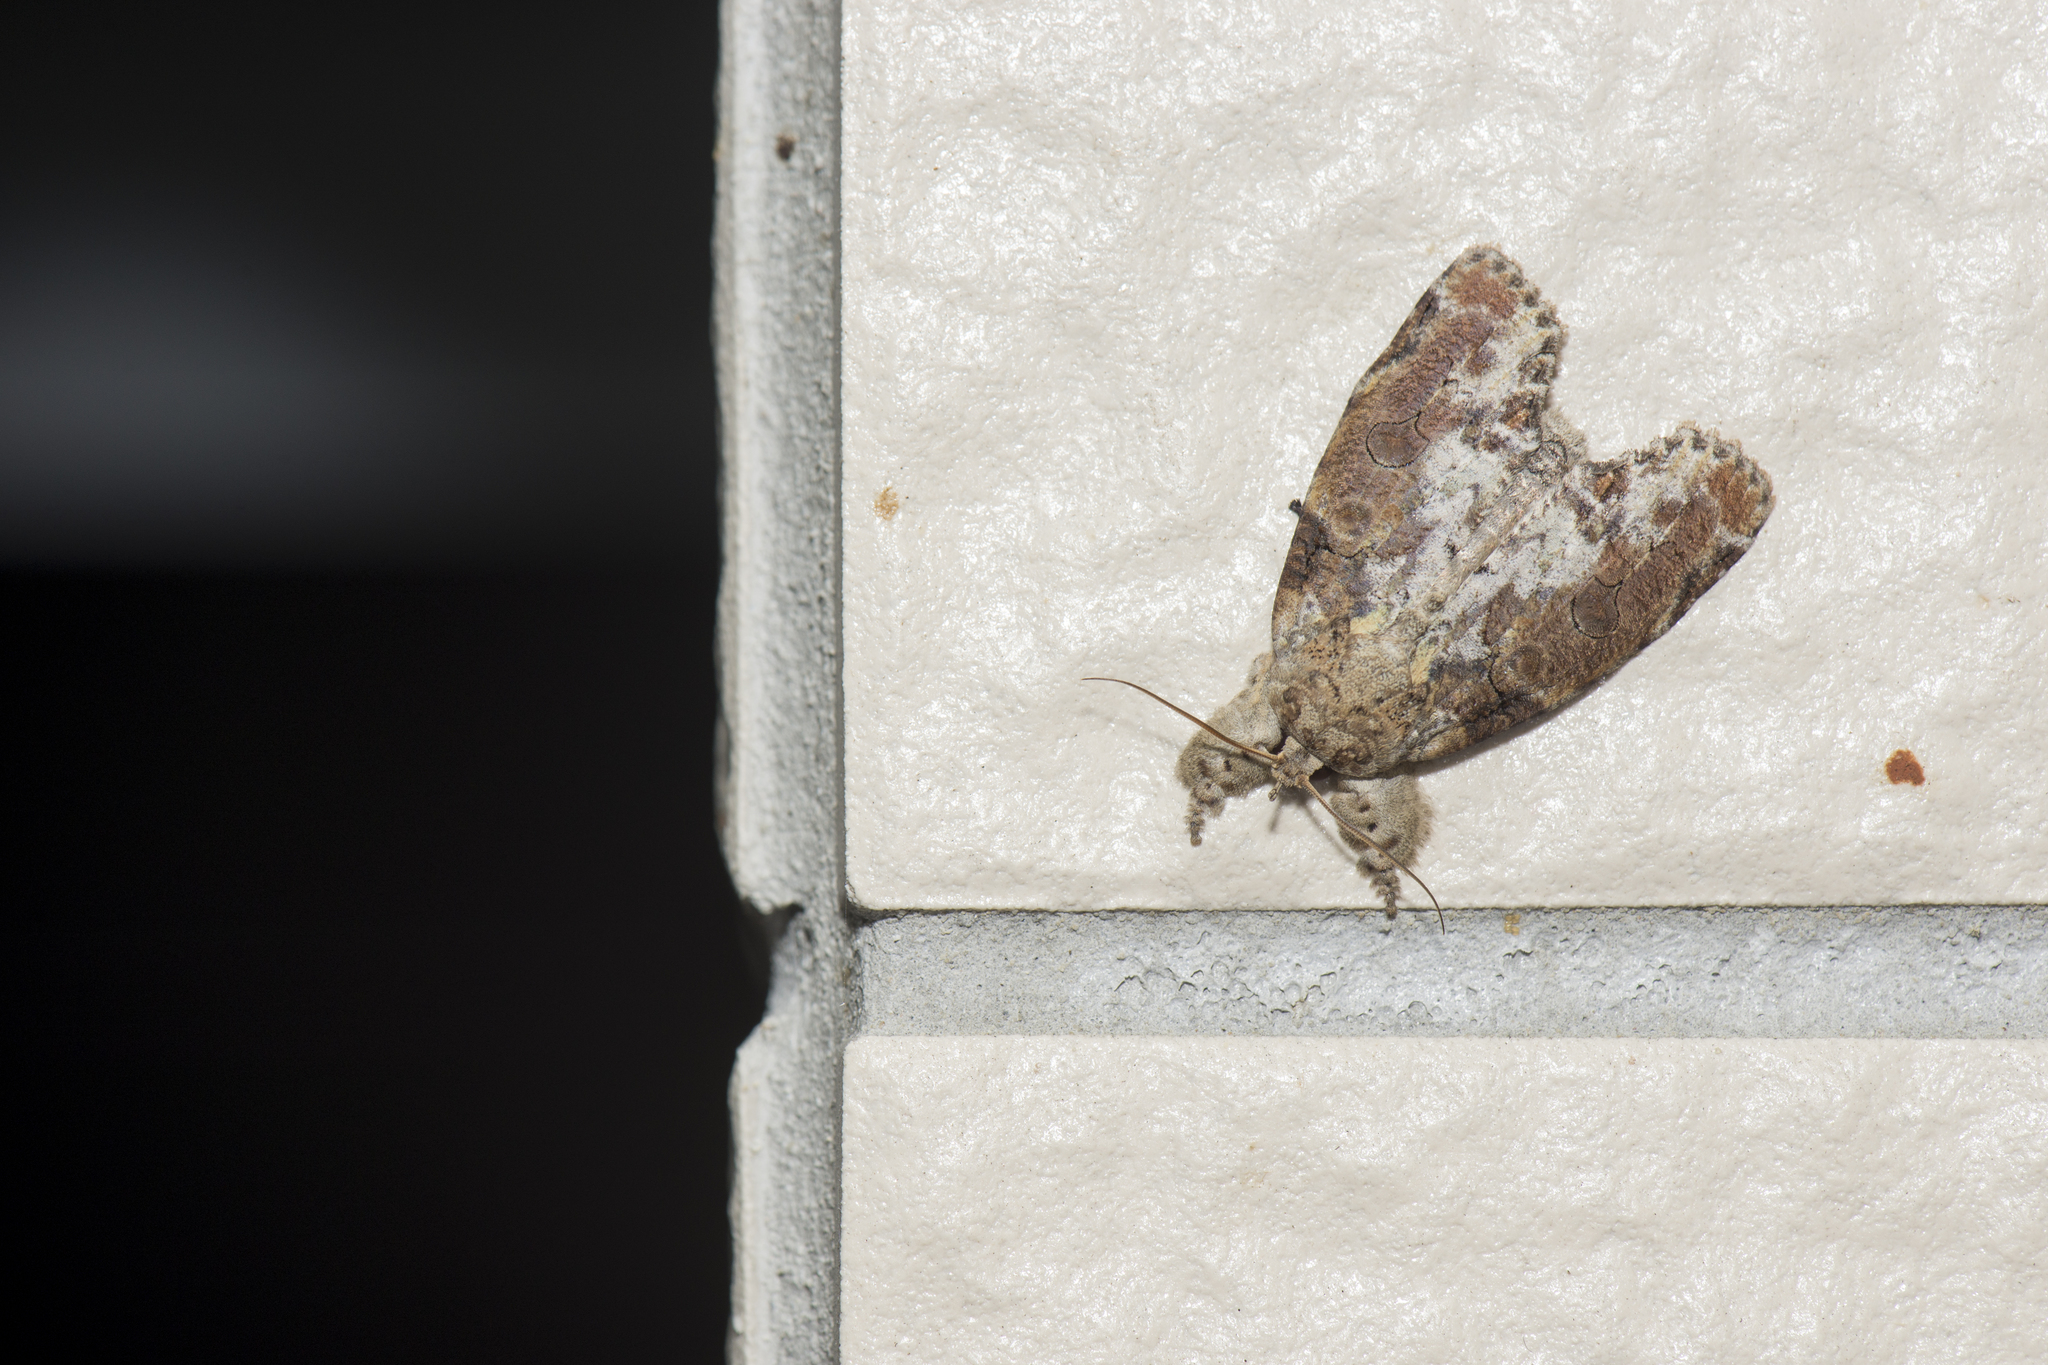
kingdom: Animalia
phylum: Arthropoda
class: Insecta
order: Lepidoptera
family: Nolidae
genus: Gadirtha
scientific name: Gadirtha impingens
